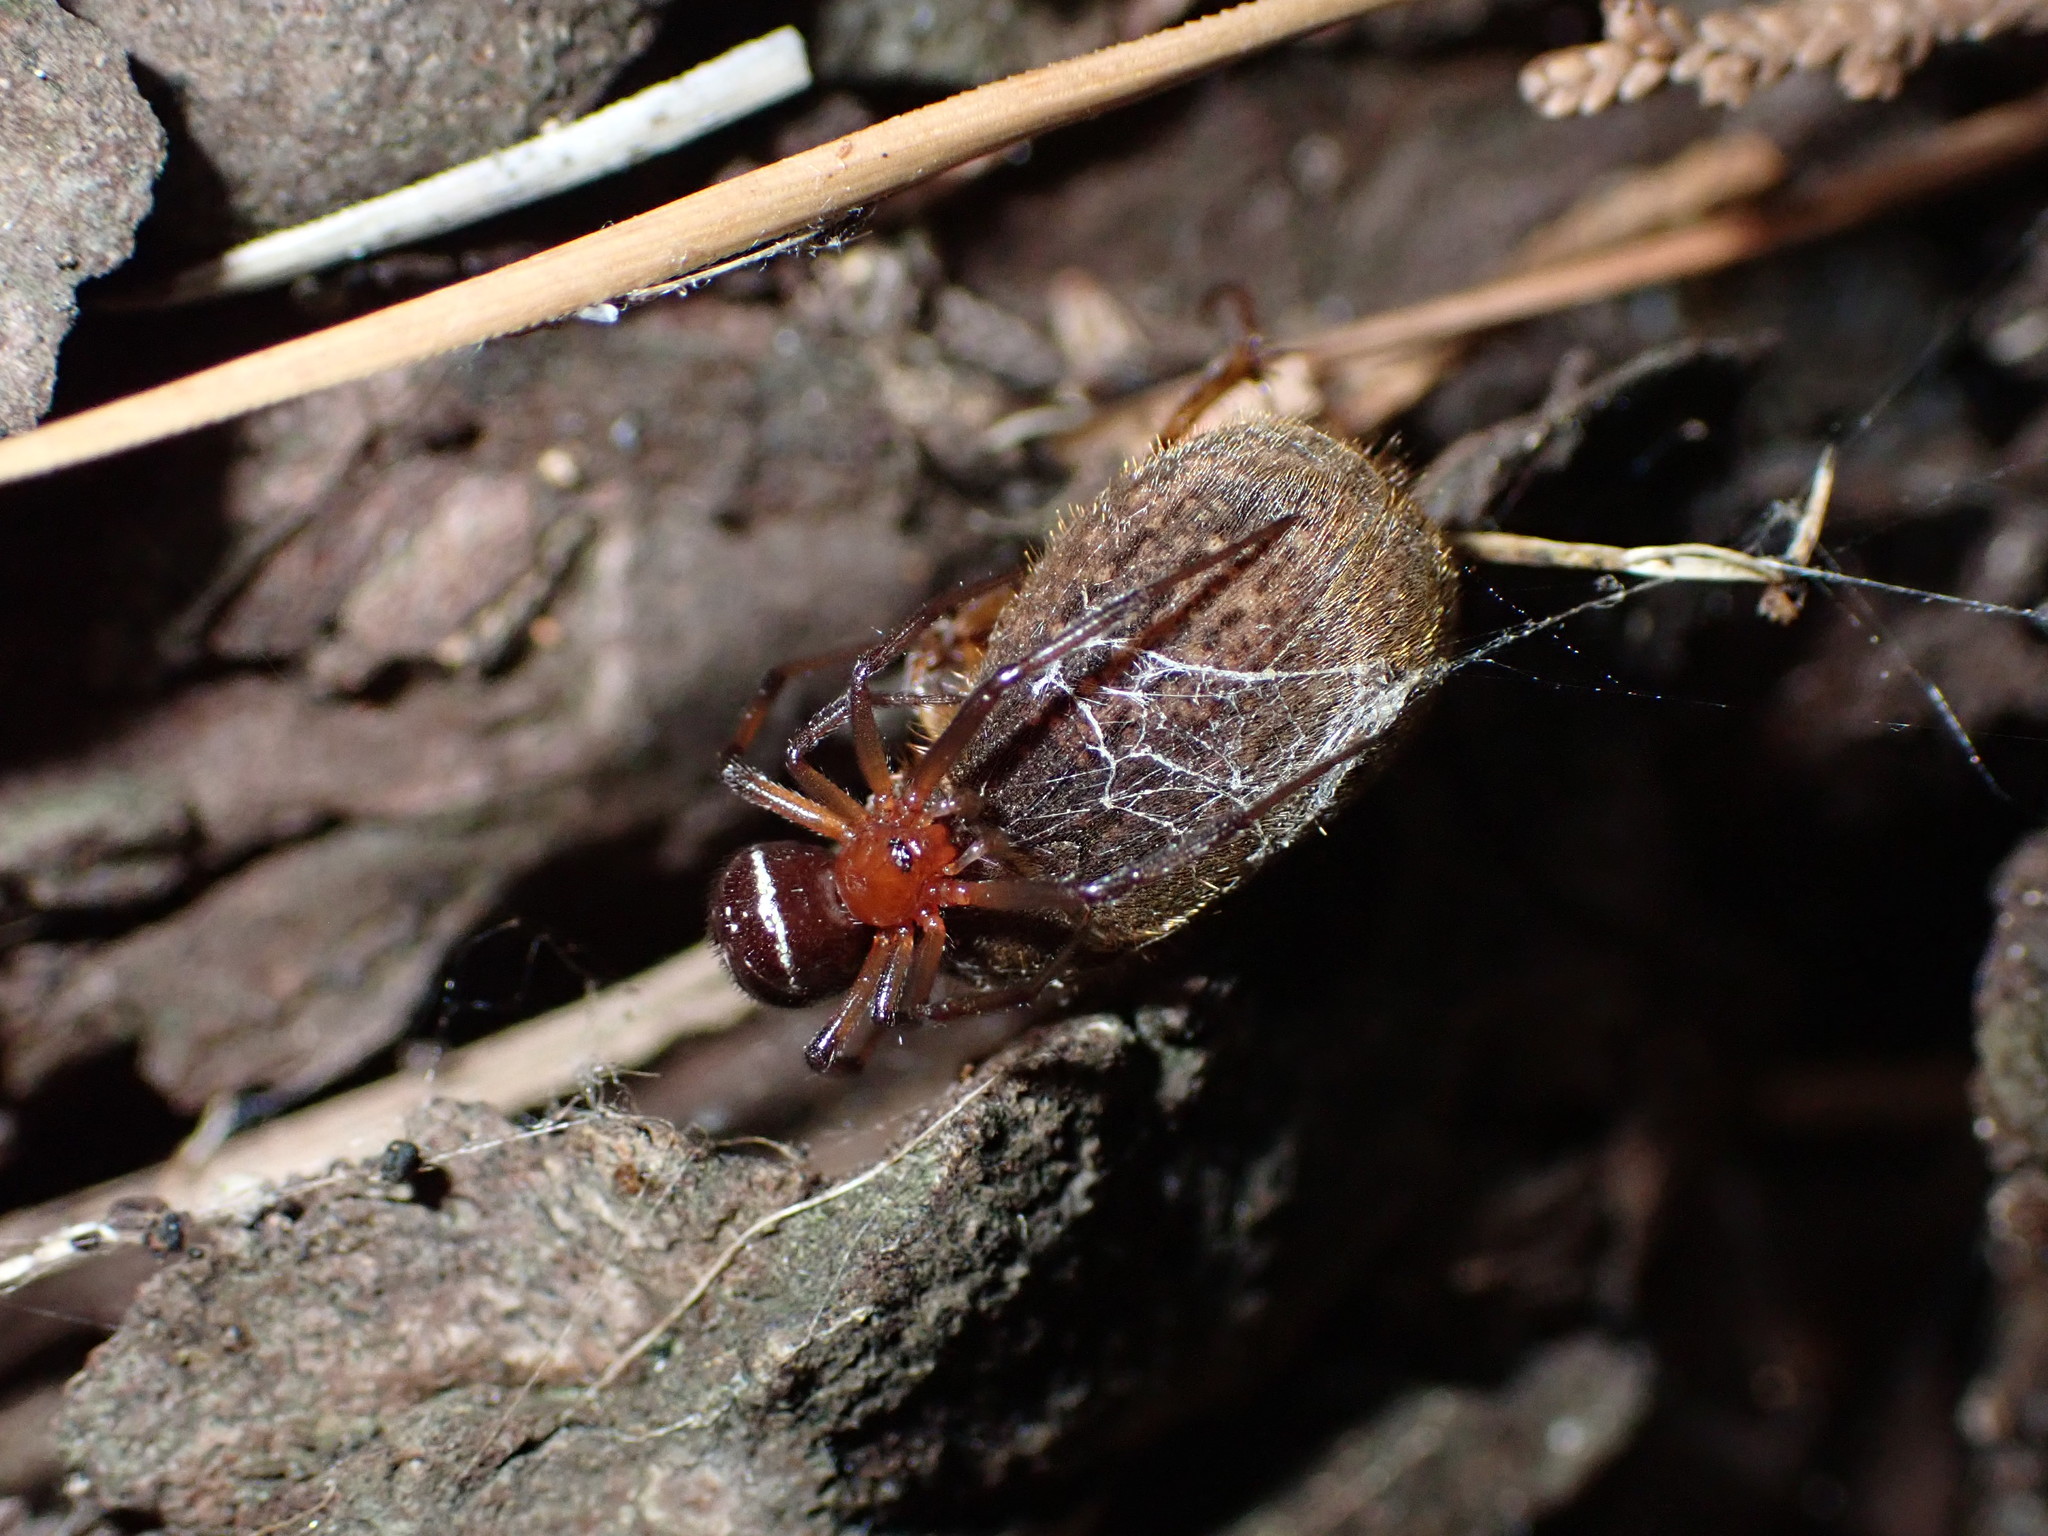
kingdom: Animalia
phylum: Arthropoda
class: Arachnida
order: Araneae
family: Theridiidae
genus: Steatoda
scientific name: Steatoda capensis
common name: Cobweb weaver
